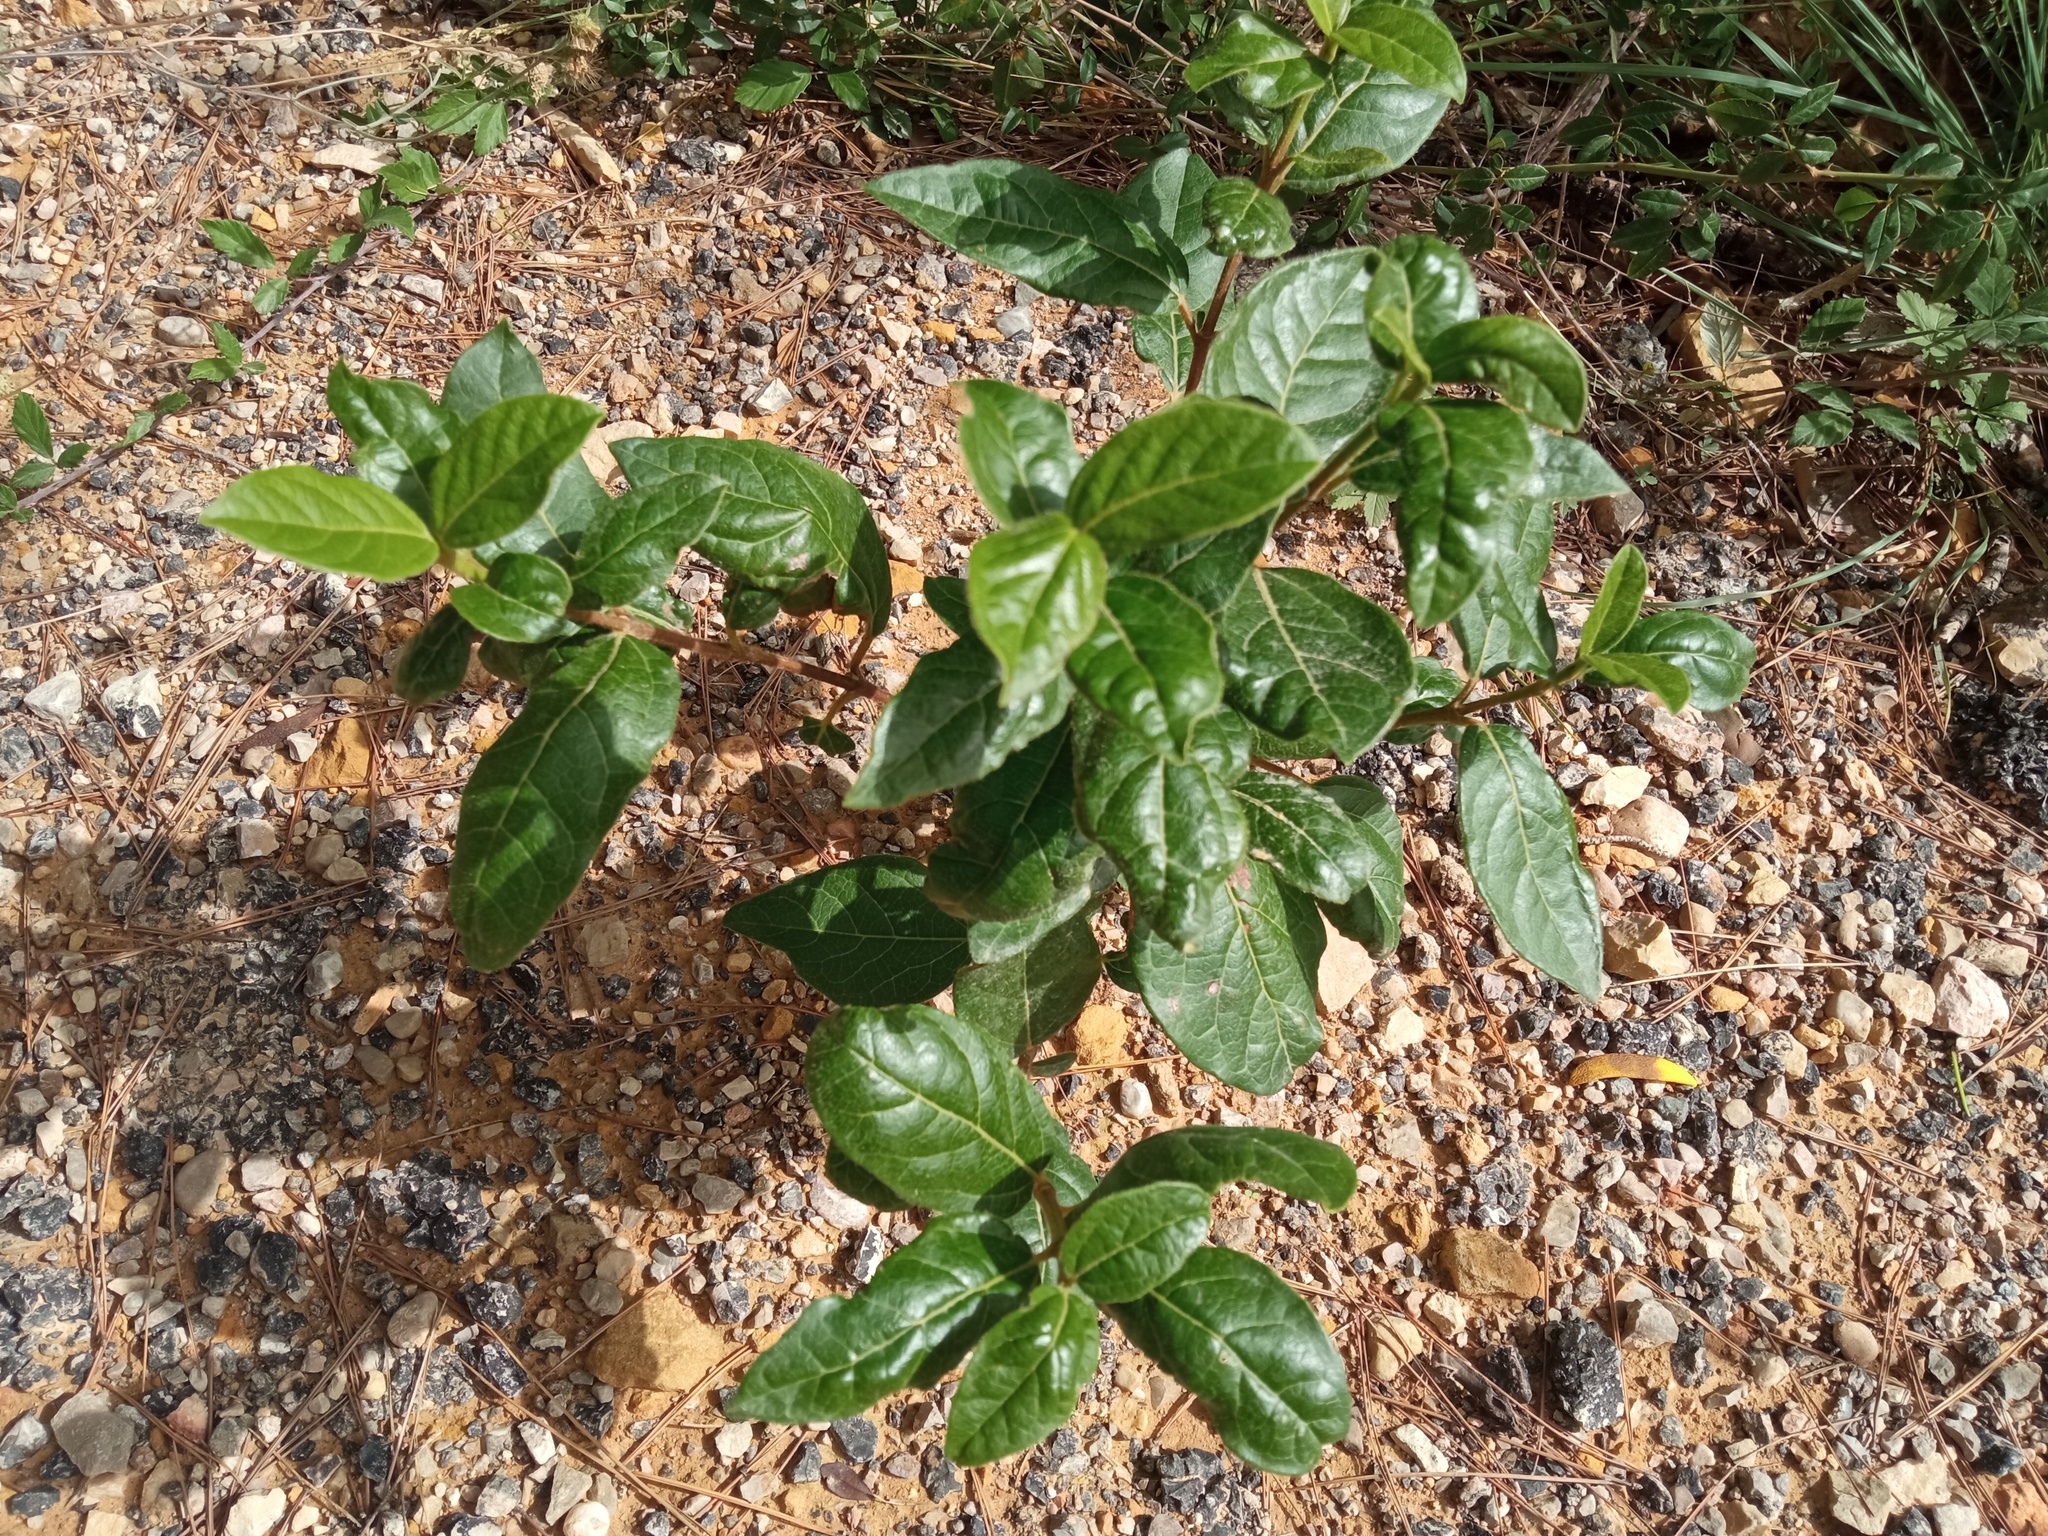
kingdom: Plantae
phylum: Tracheophyta
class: Magnoliopsida
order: Dipsacales
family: Viburnaceae
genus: Viburnum
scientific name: Viburnum tinus
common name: Laurustinus
